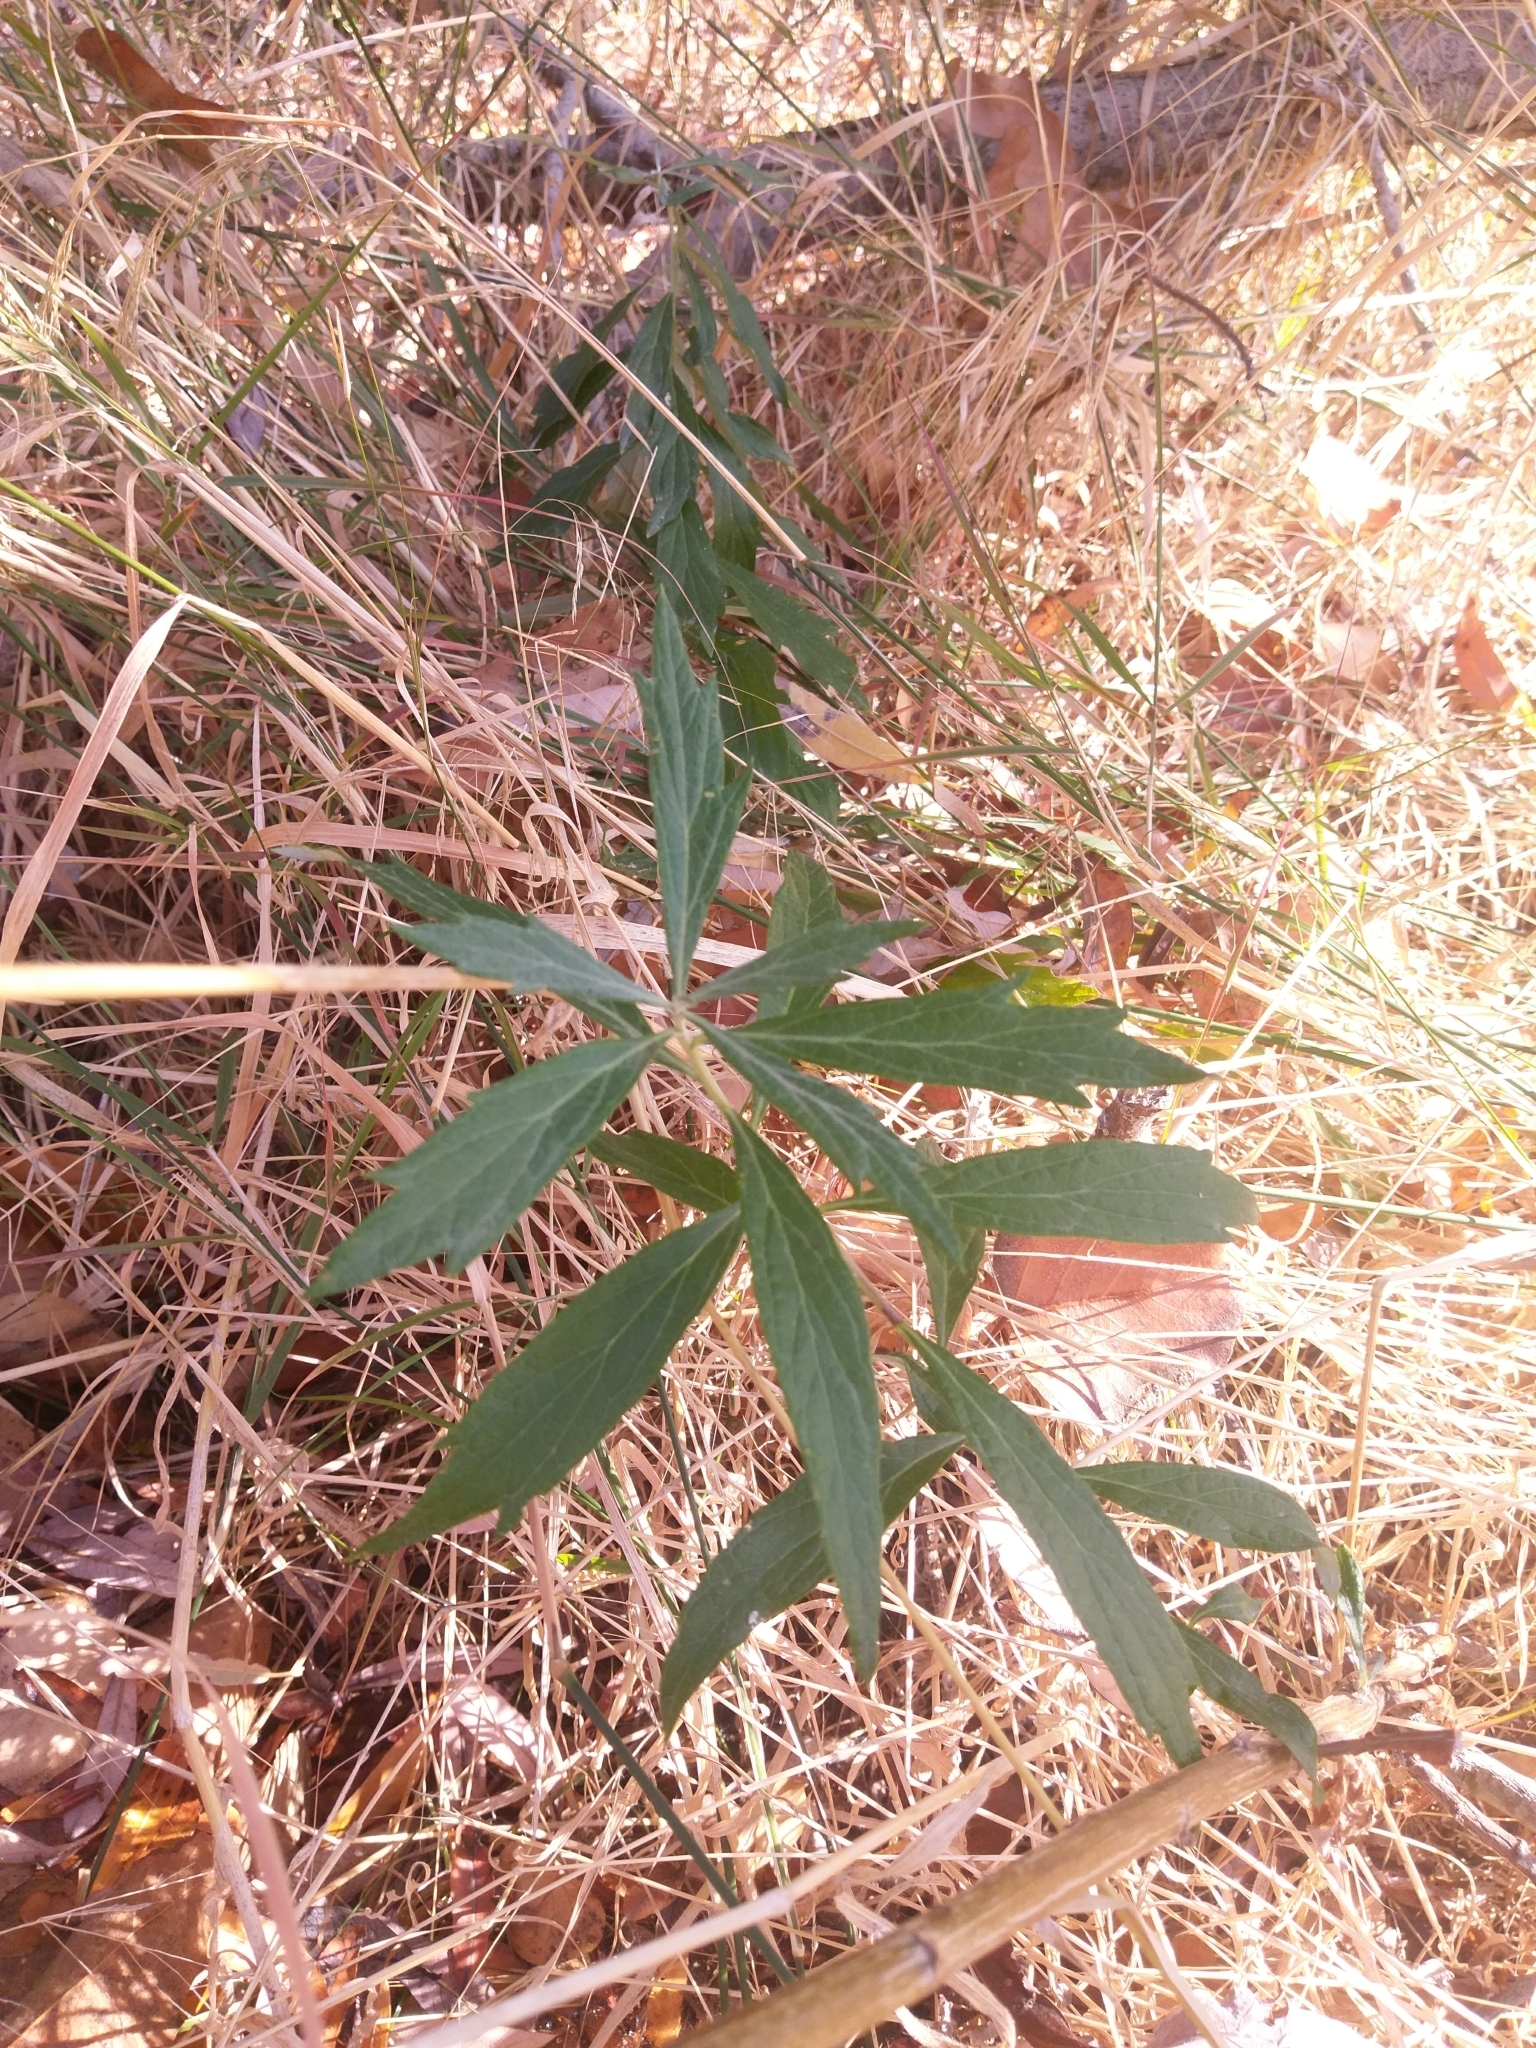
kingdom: Plantae
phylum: Tracheophyta
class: Magnoliopsida
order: Asterales
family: Asteraceae
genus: Artemisia
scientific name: Artemisia douglasiana
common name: Northwest mugwort
